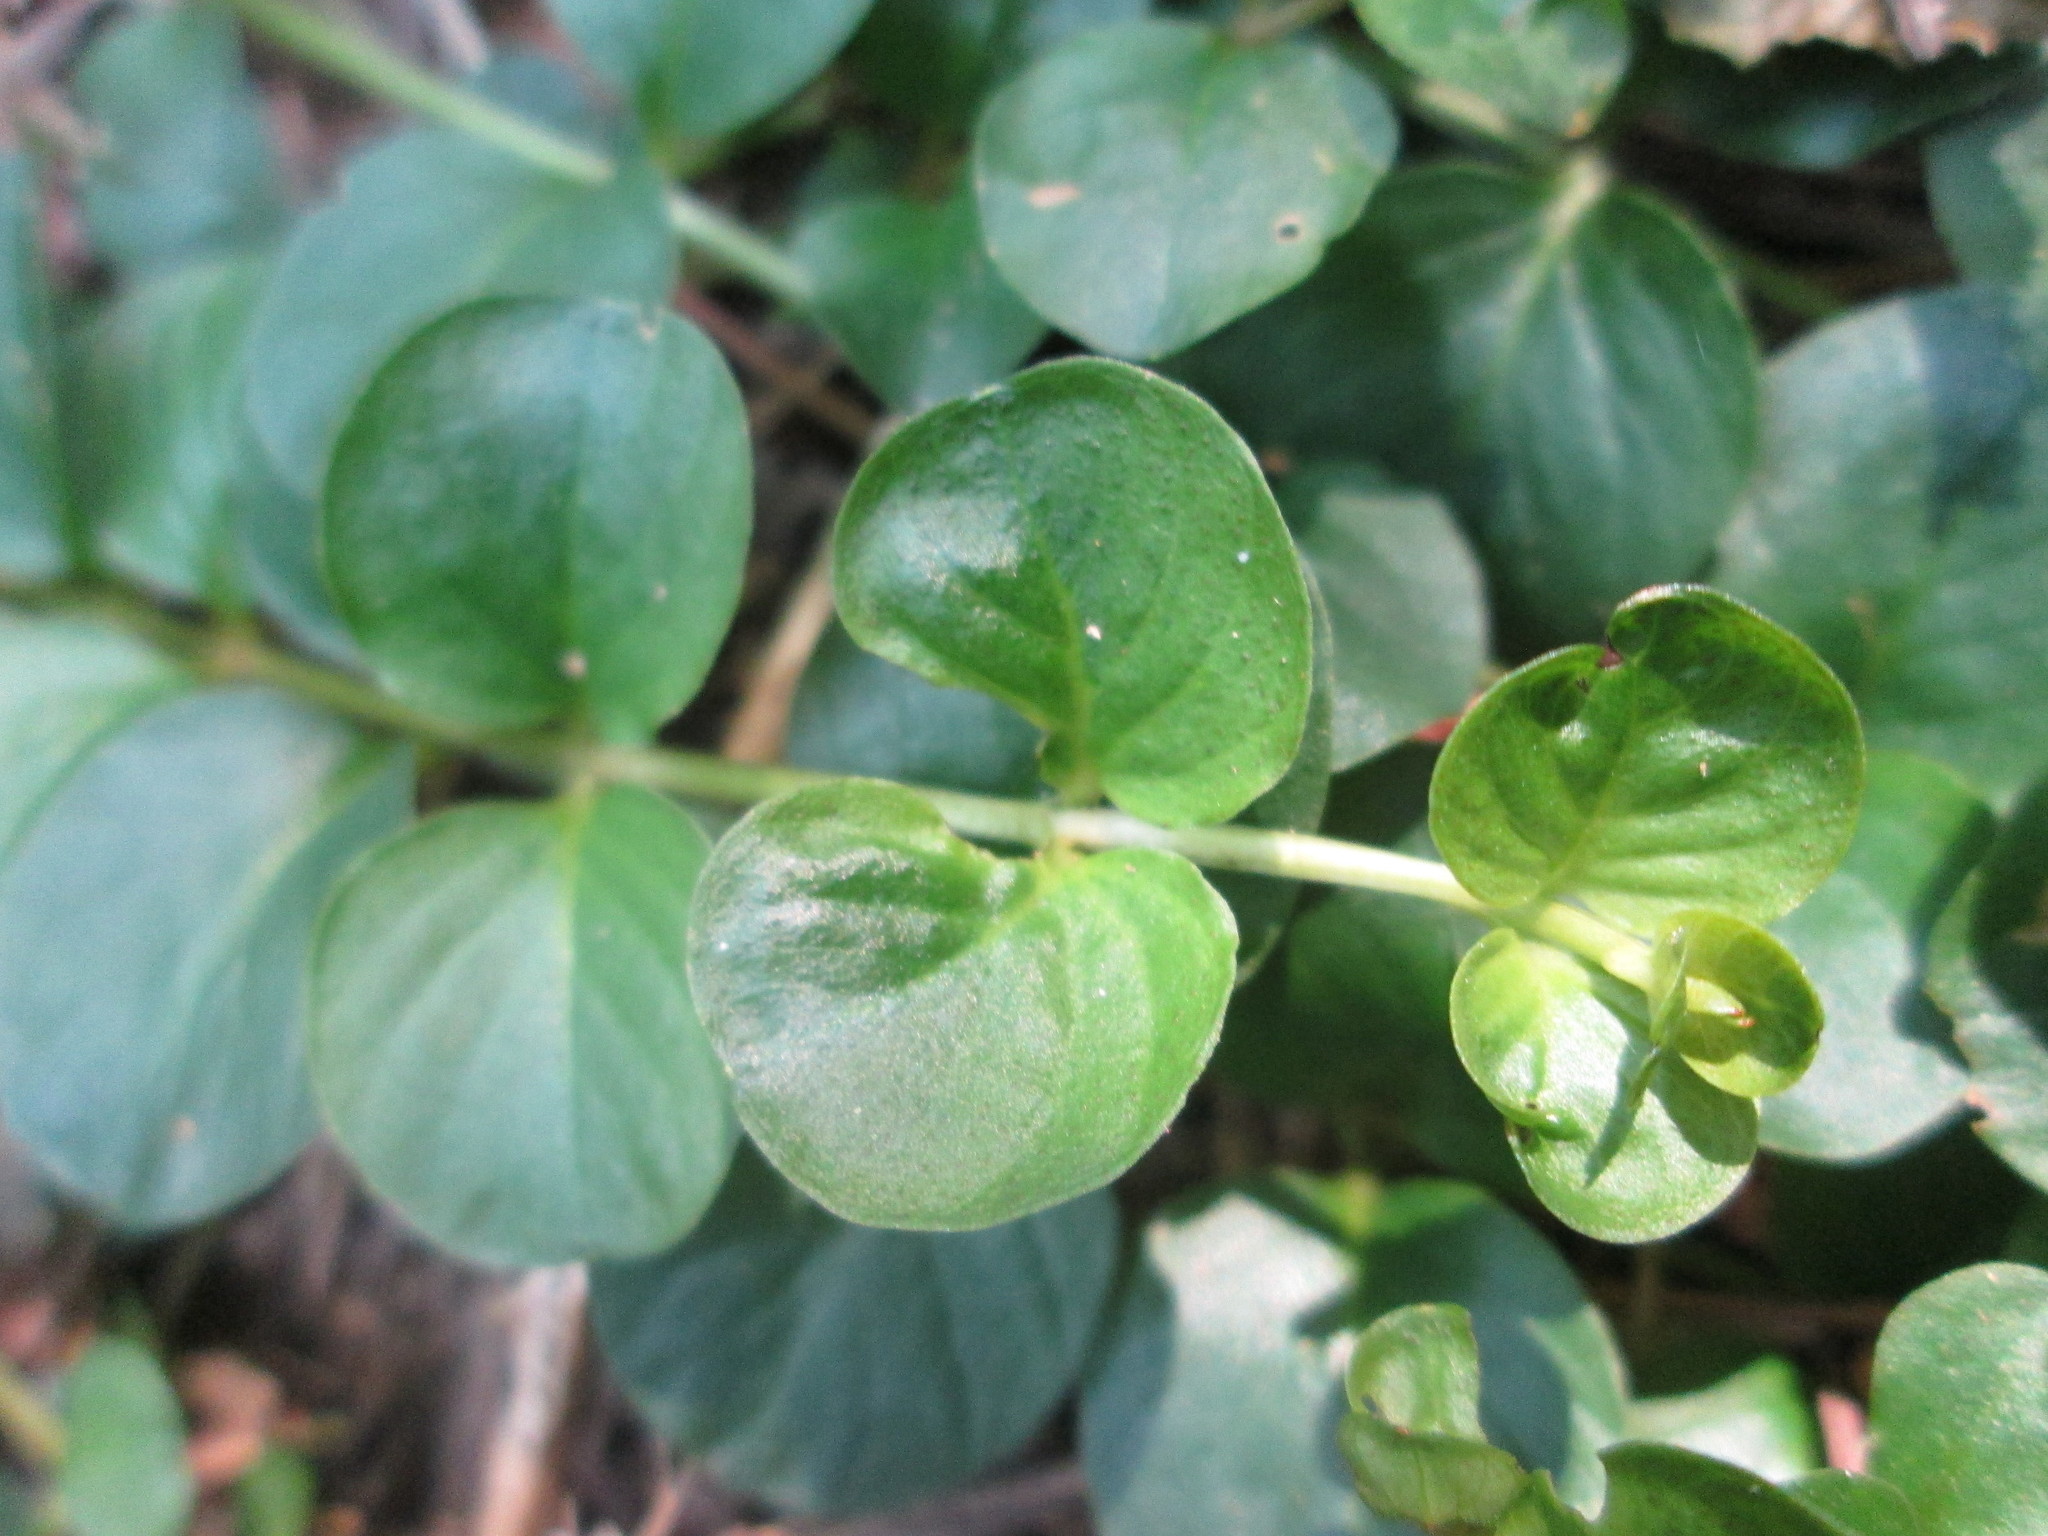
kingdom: Plantae
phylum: Tracheophyta
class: Magnoliopsida
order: Ericales
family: Primulaceae
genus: Lysimachia
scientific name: Lysimachia nummularia
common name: Moneywort
